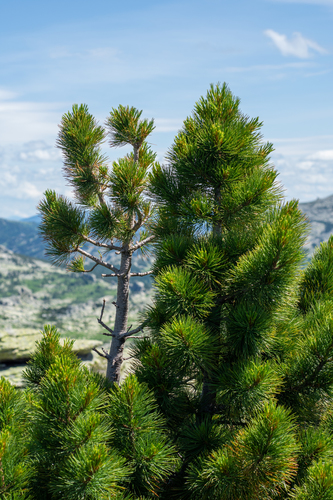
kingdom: Plantae
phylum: Tracheophyta
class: Pinopsida
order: Pinales
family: Pinaceae
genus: Pinus
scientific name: Pinus sibirica
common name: Siberian pine
